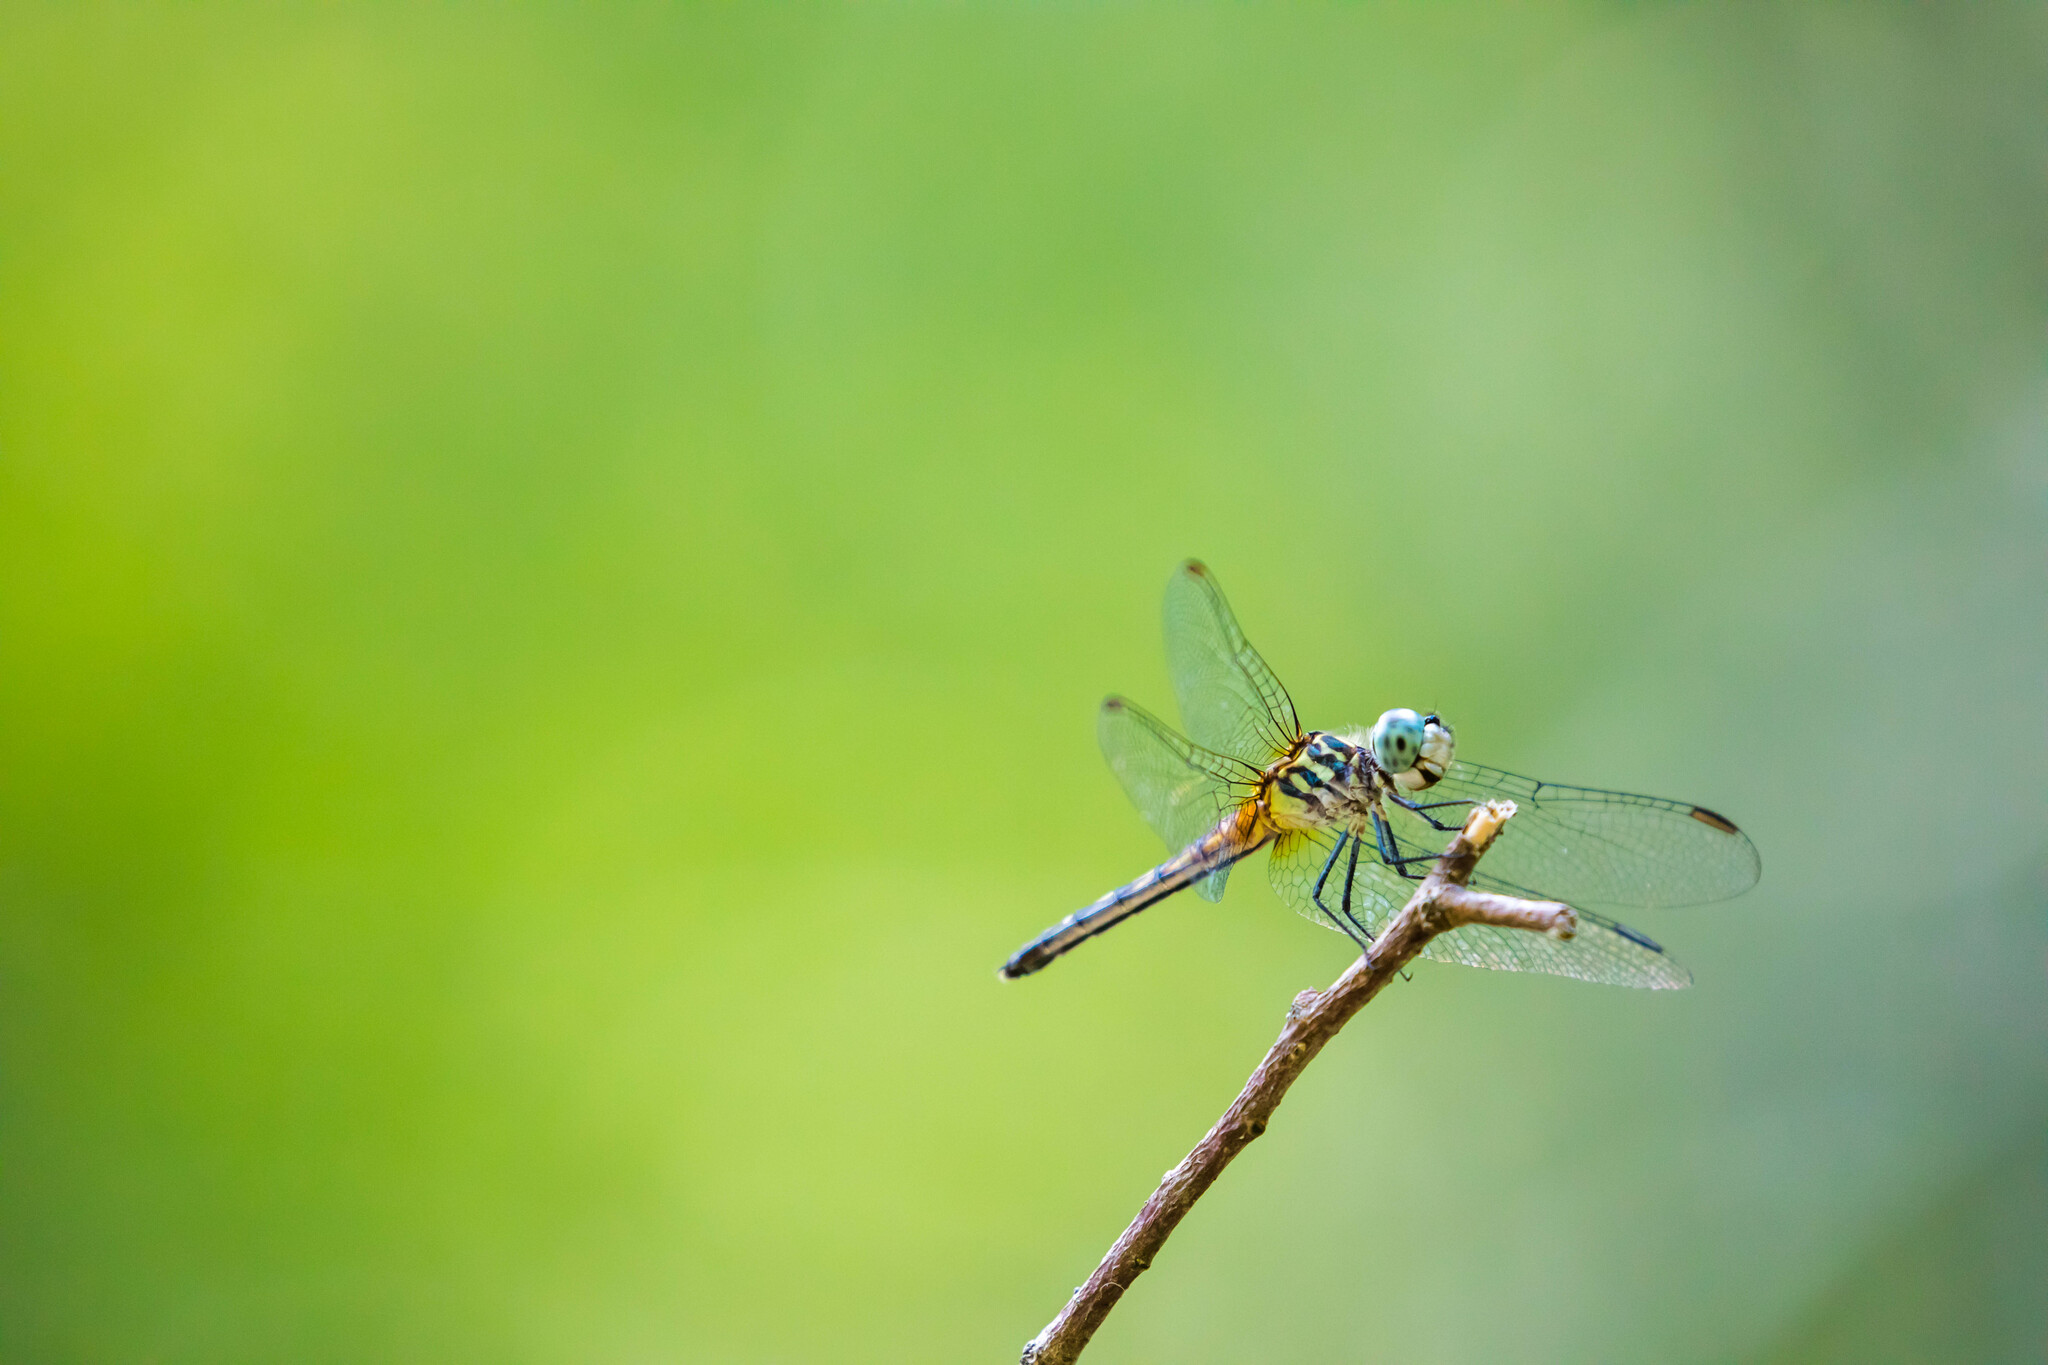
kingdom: Animalia
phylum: Arthropoda
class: Insecta
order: Odonata
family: Libellulidae
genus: Pachydiplax
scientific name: Pachydiplax longipennis
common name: Blue dasher
